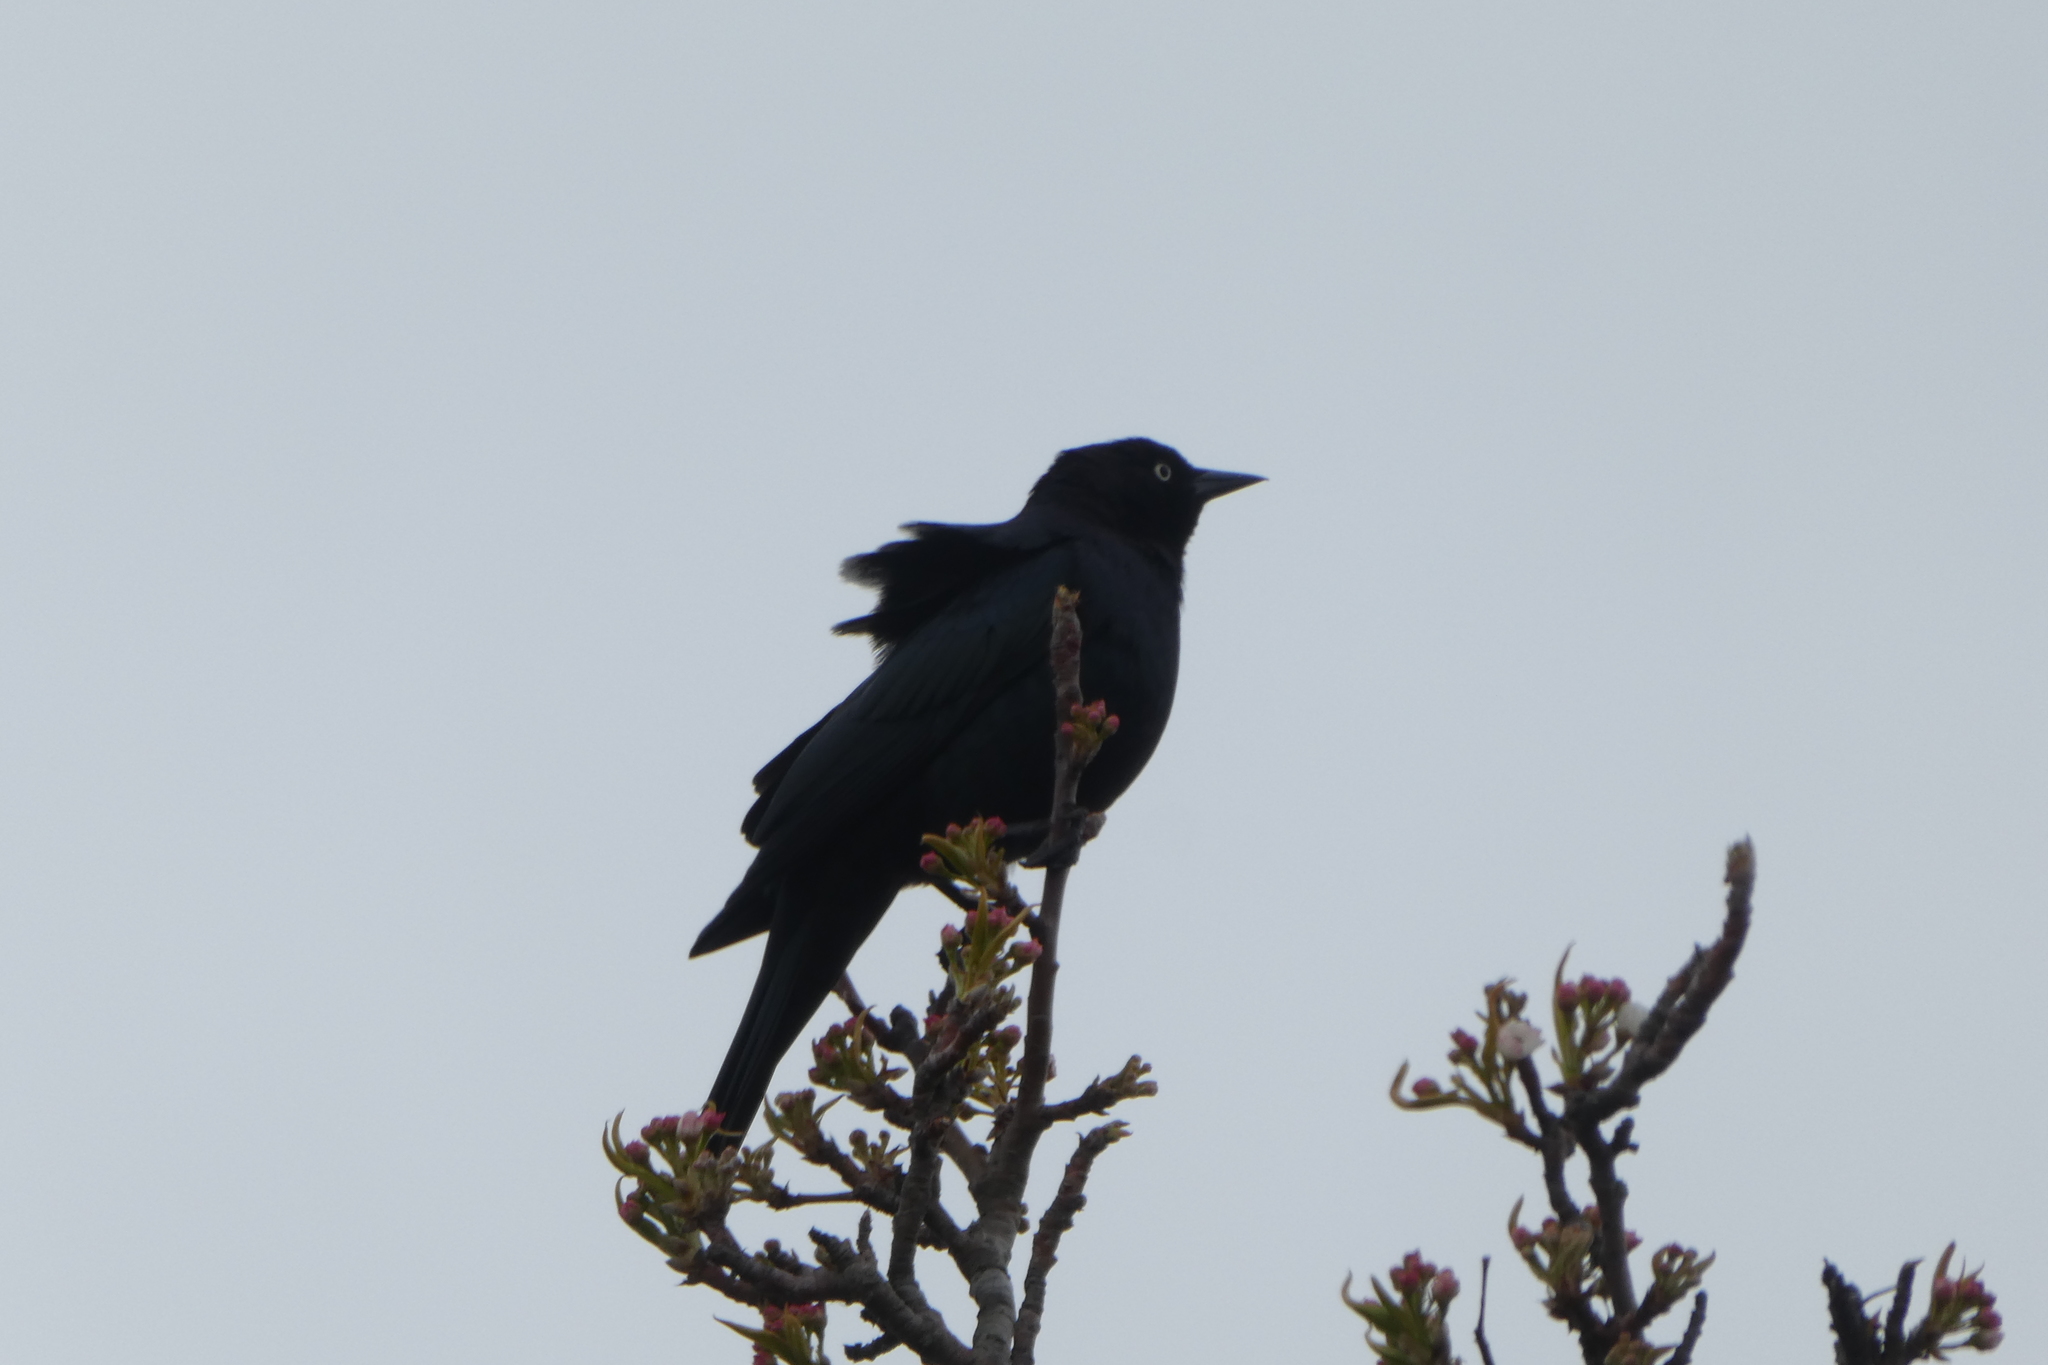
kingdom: Animalia
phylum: Chordata
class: Aves
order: Passeriformes
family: Icteridae
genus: Euphagus
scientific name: Euphagus cyanocephalus
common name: Brewer's blackbird
